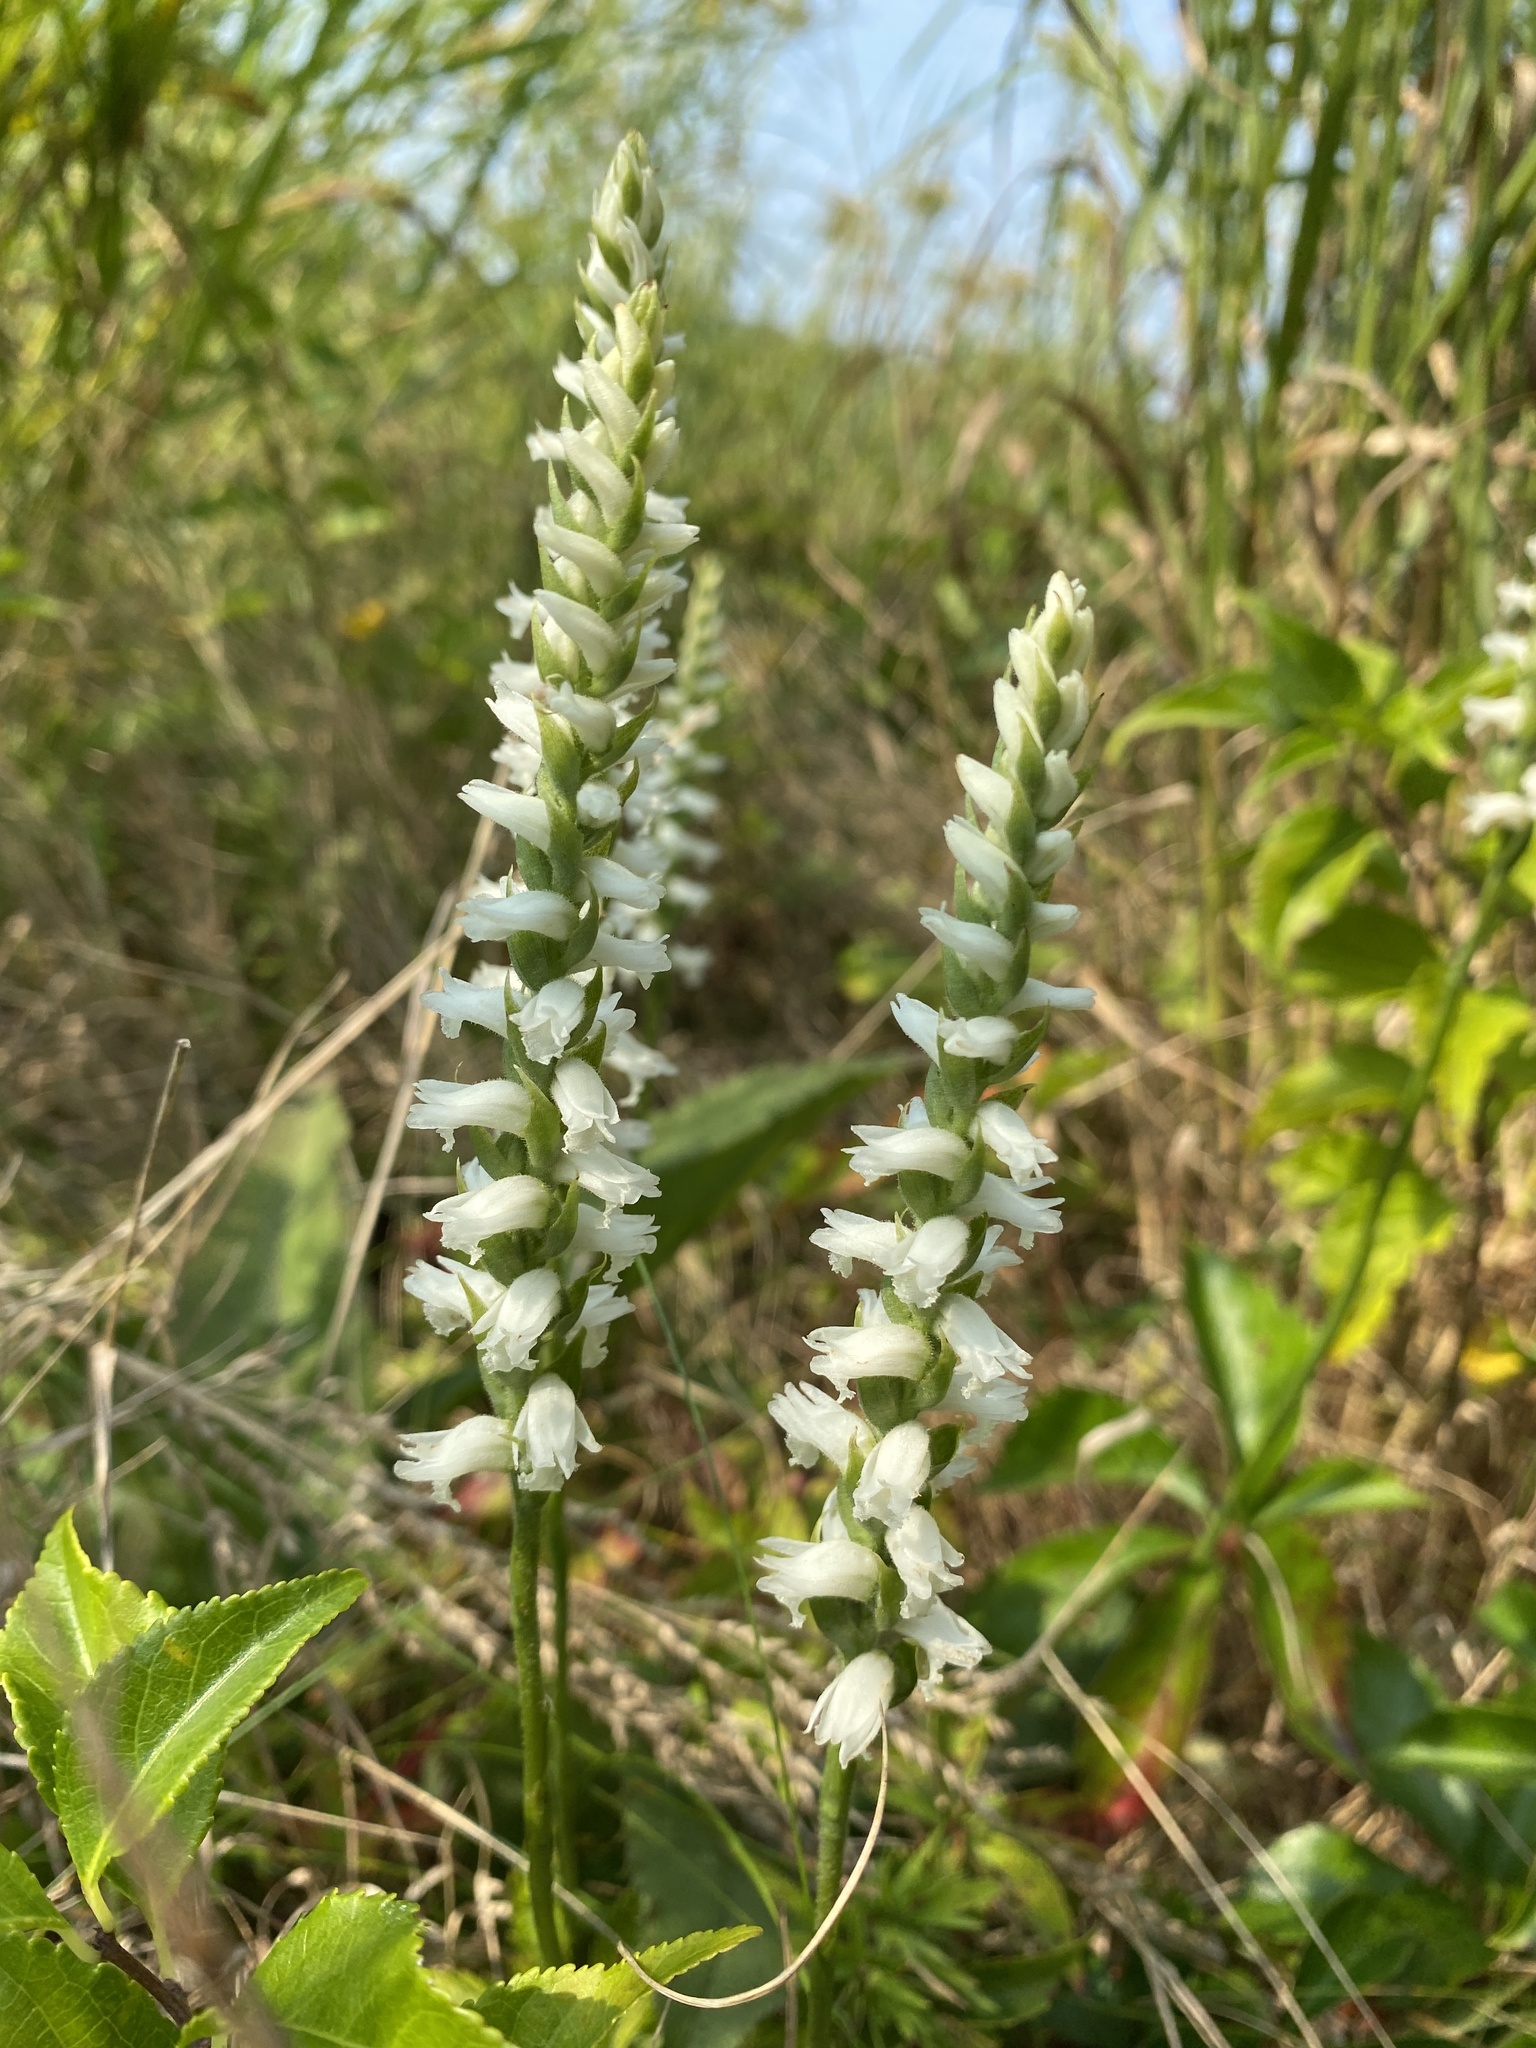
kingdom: Plantae
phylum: Tracheophyta
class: Liliopsida
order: Asparagales
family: Orchidaceae
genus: Spiranthes
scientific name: Spiranthes cernua
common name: Dropping ladies'-tresses
